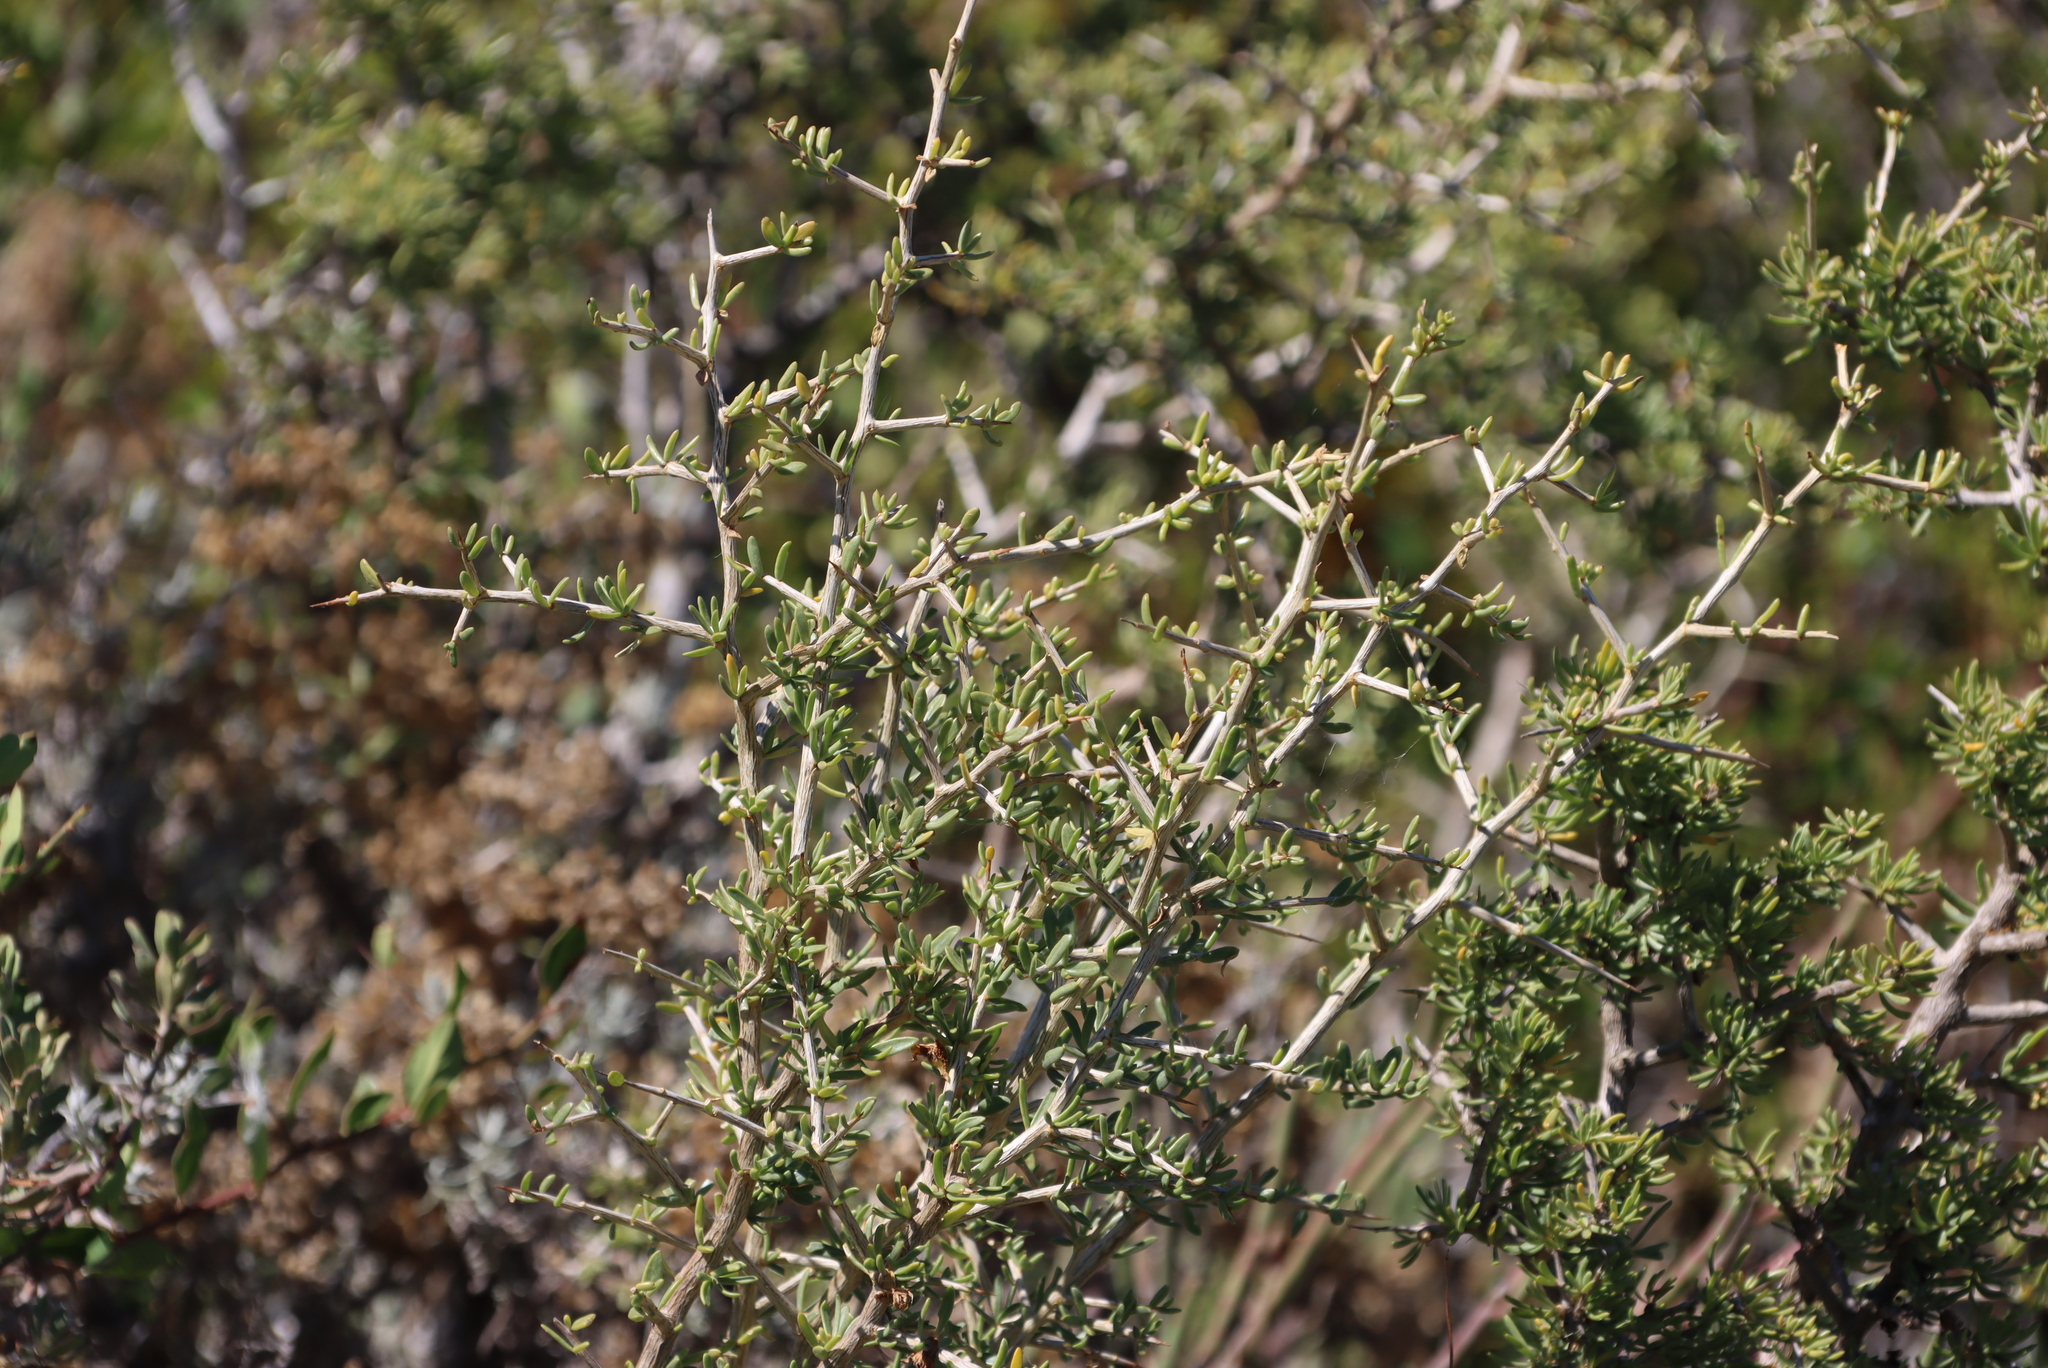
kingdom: Plantae
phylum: Tracheophyta
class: Magnoliopsida
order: Solanales
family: Solanaceae
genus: Lycium
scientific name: Lycium afrum
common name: Kaffir boxthorn
